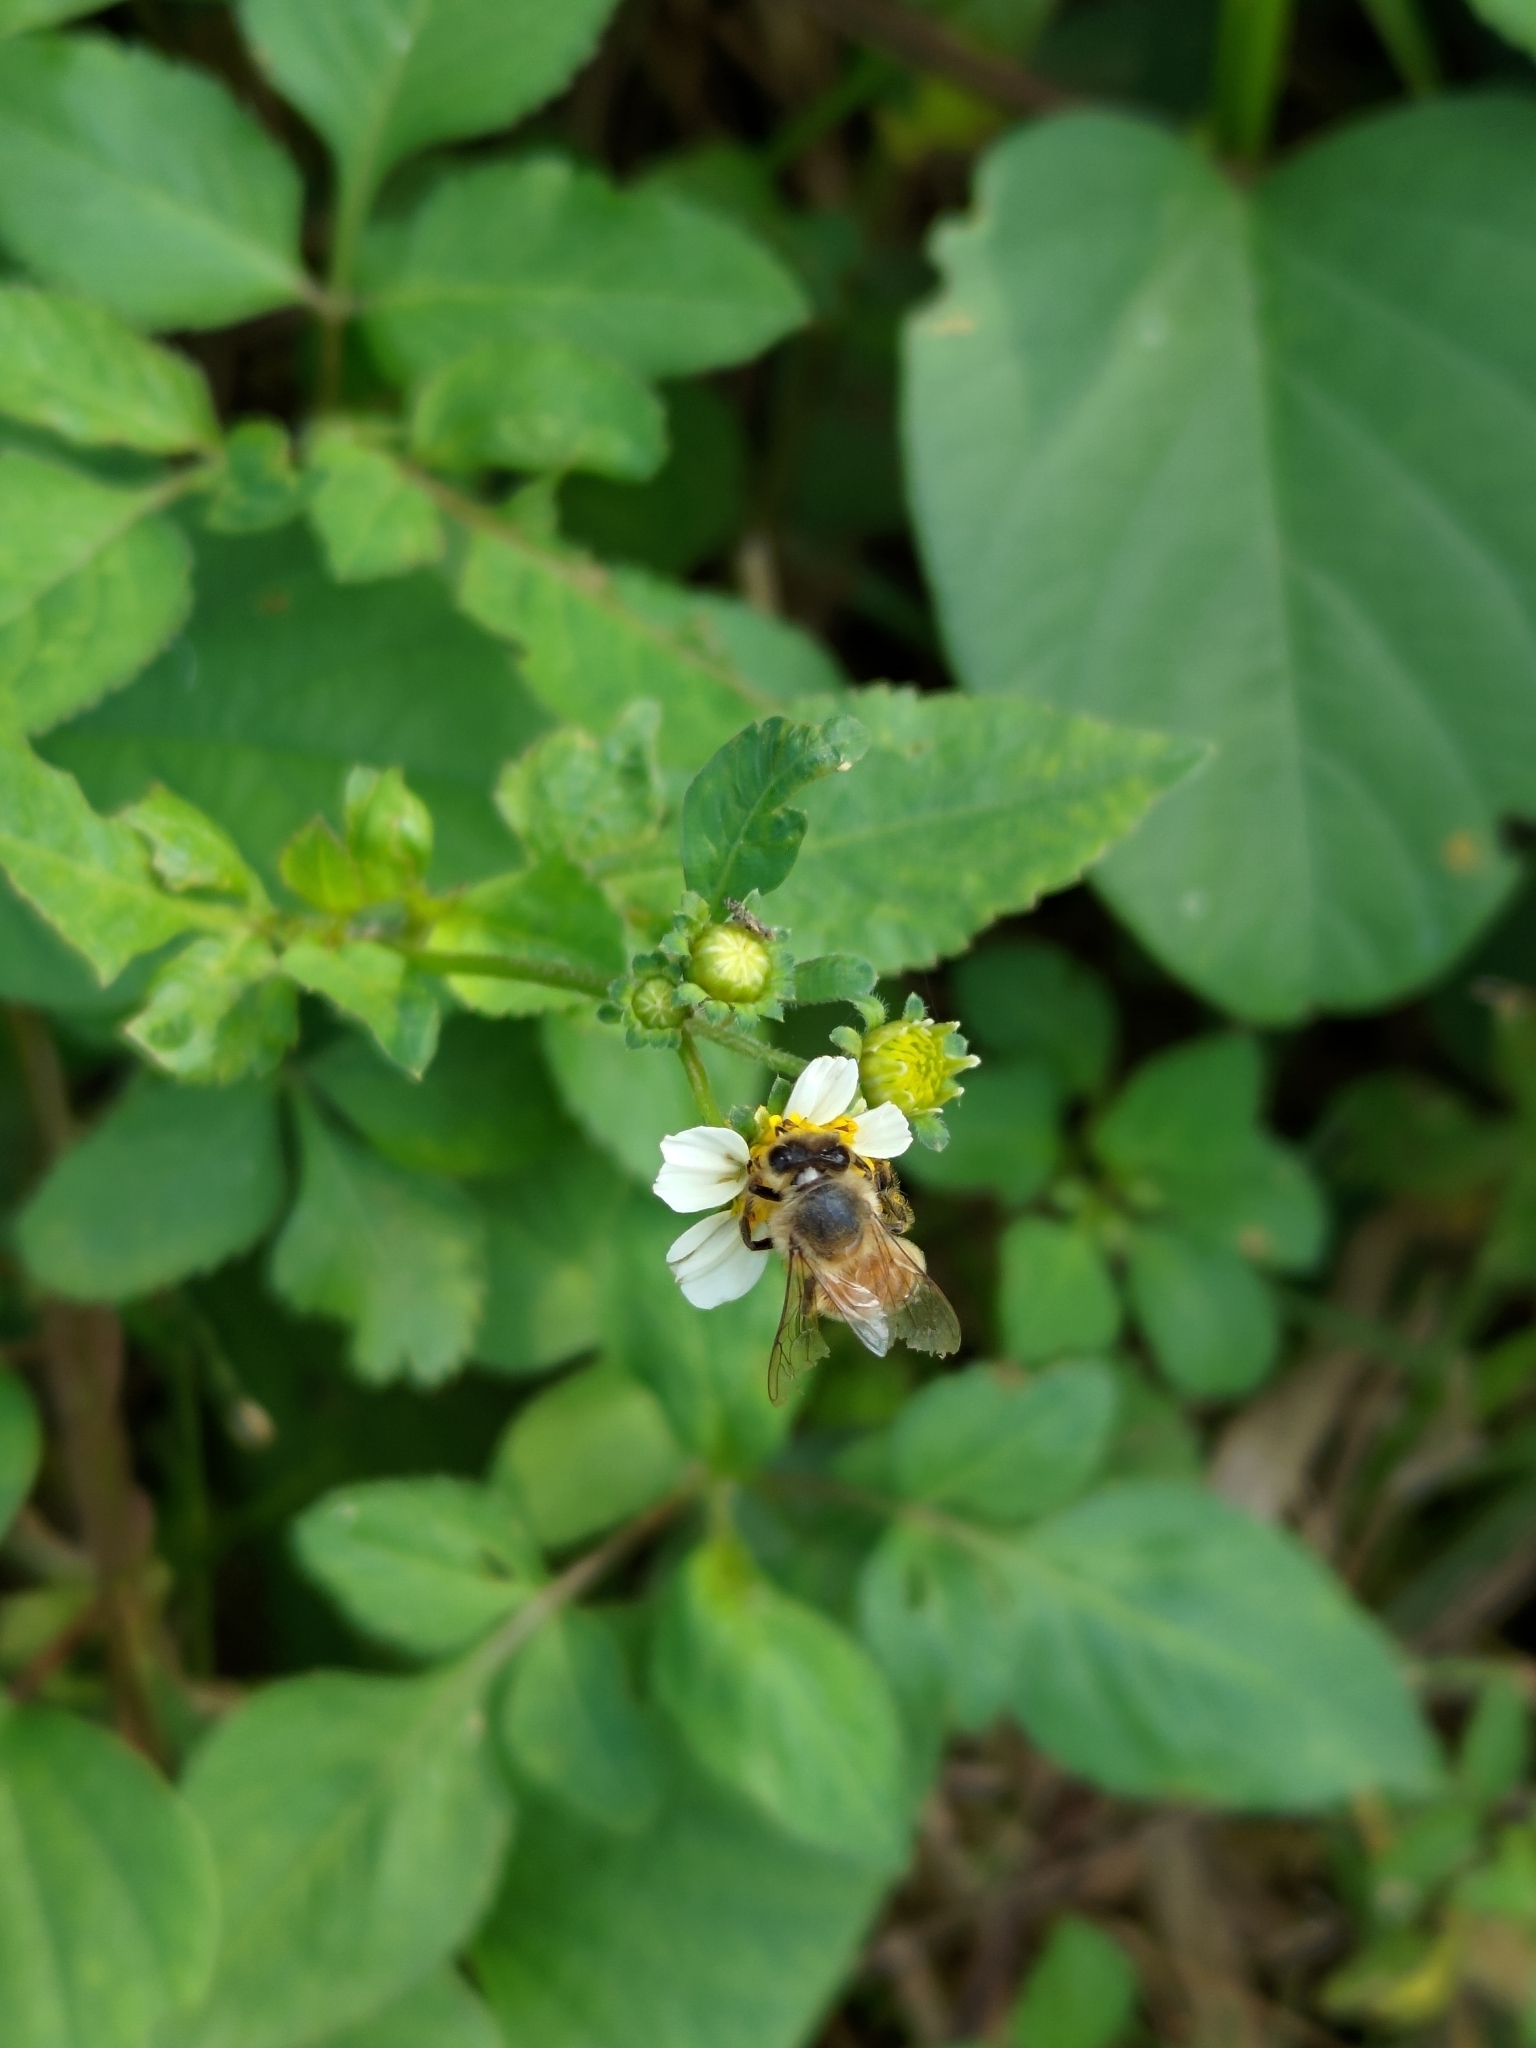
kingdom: Animalia
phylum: Arthropoda
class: Insecta
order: Hymenoptera
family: Apidae
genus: Apis
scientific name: Apis mellifera
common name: Honey bee
